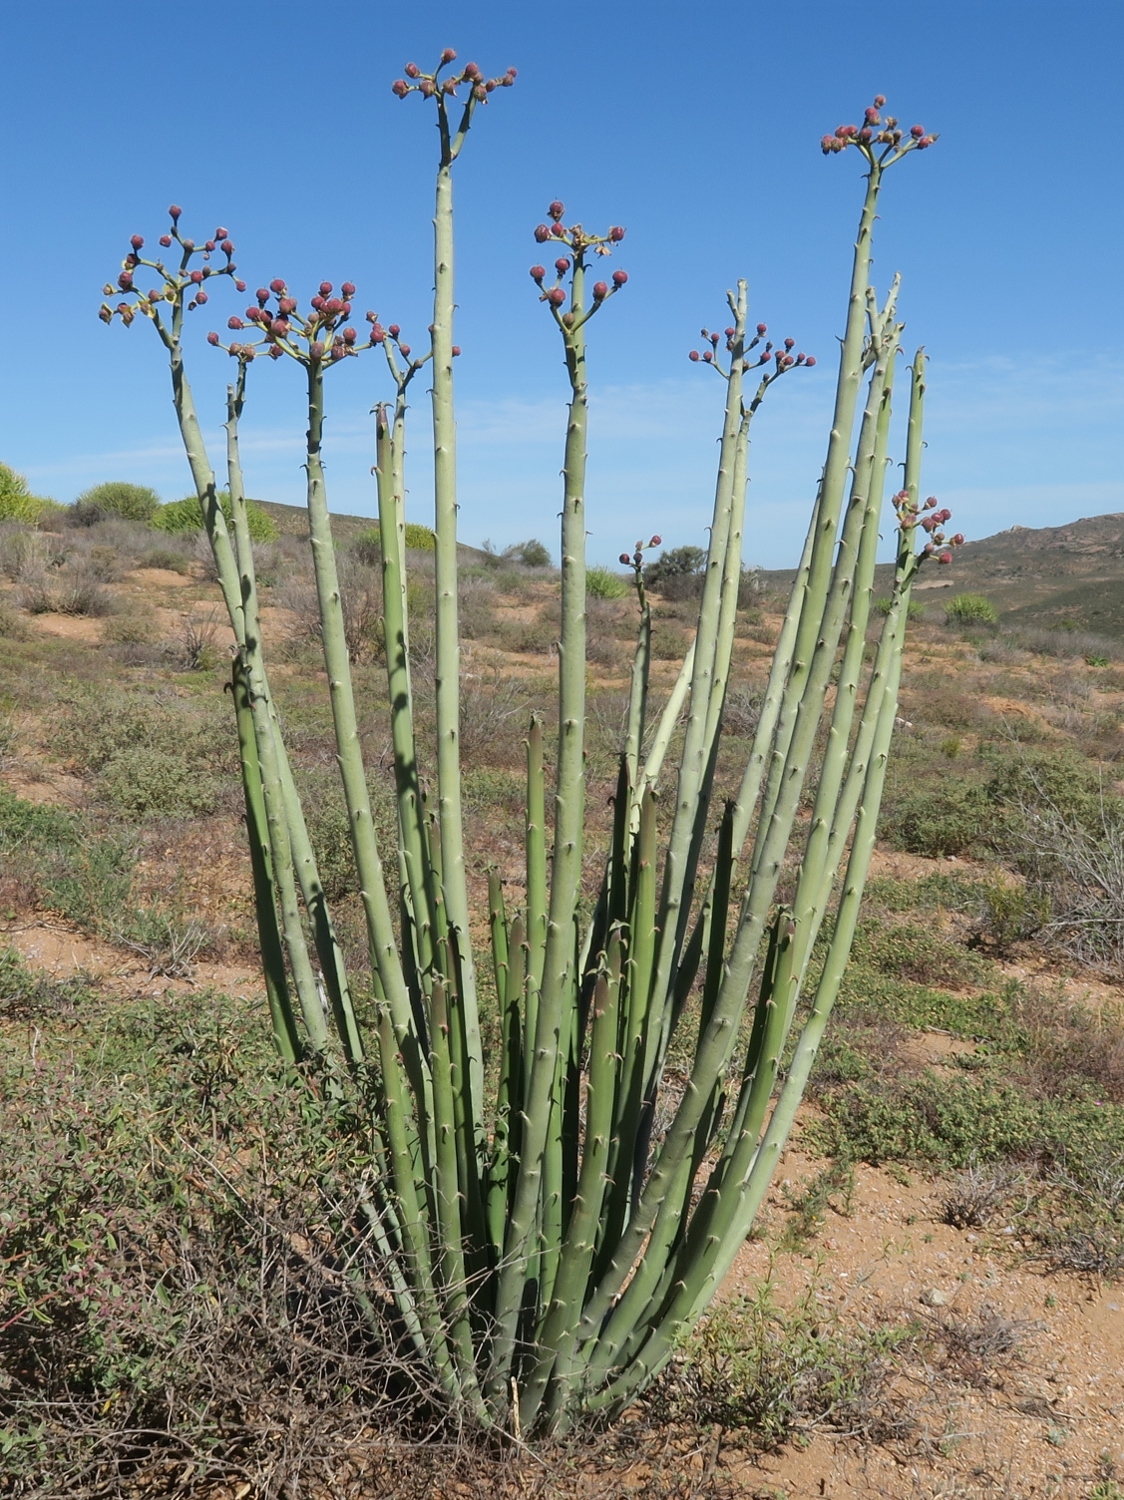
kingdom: Plantae
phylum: Tracheophyta
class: Magnoliopsida
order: Malpighiales
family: Euphorbiaceae
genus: Euphorbia
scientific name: Euphorbia dregeana
